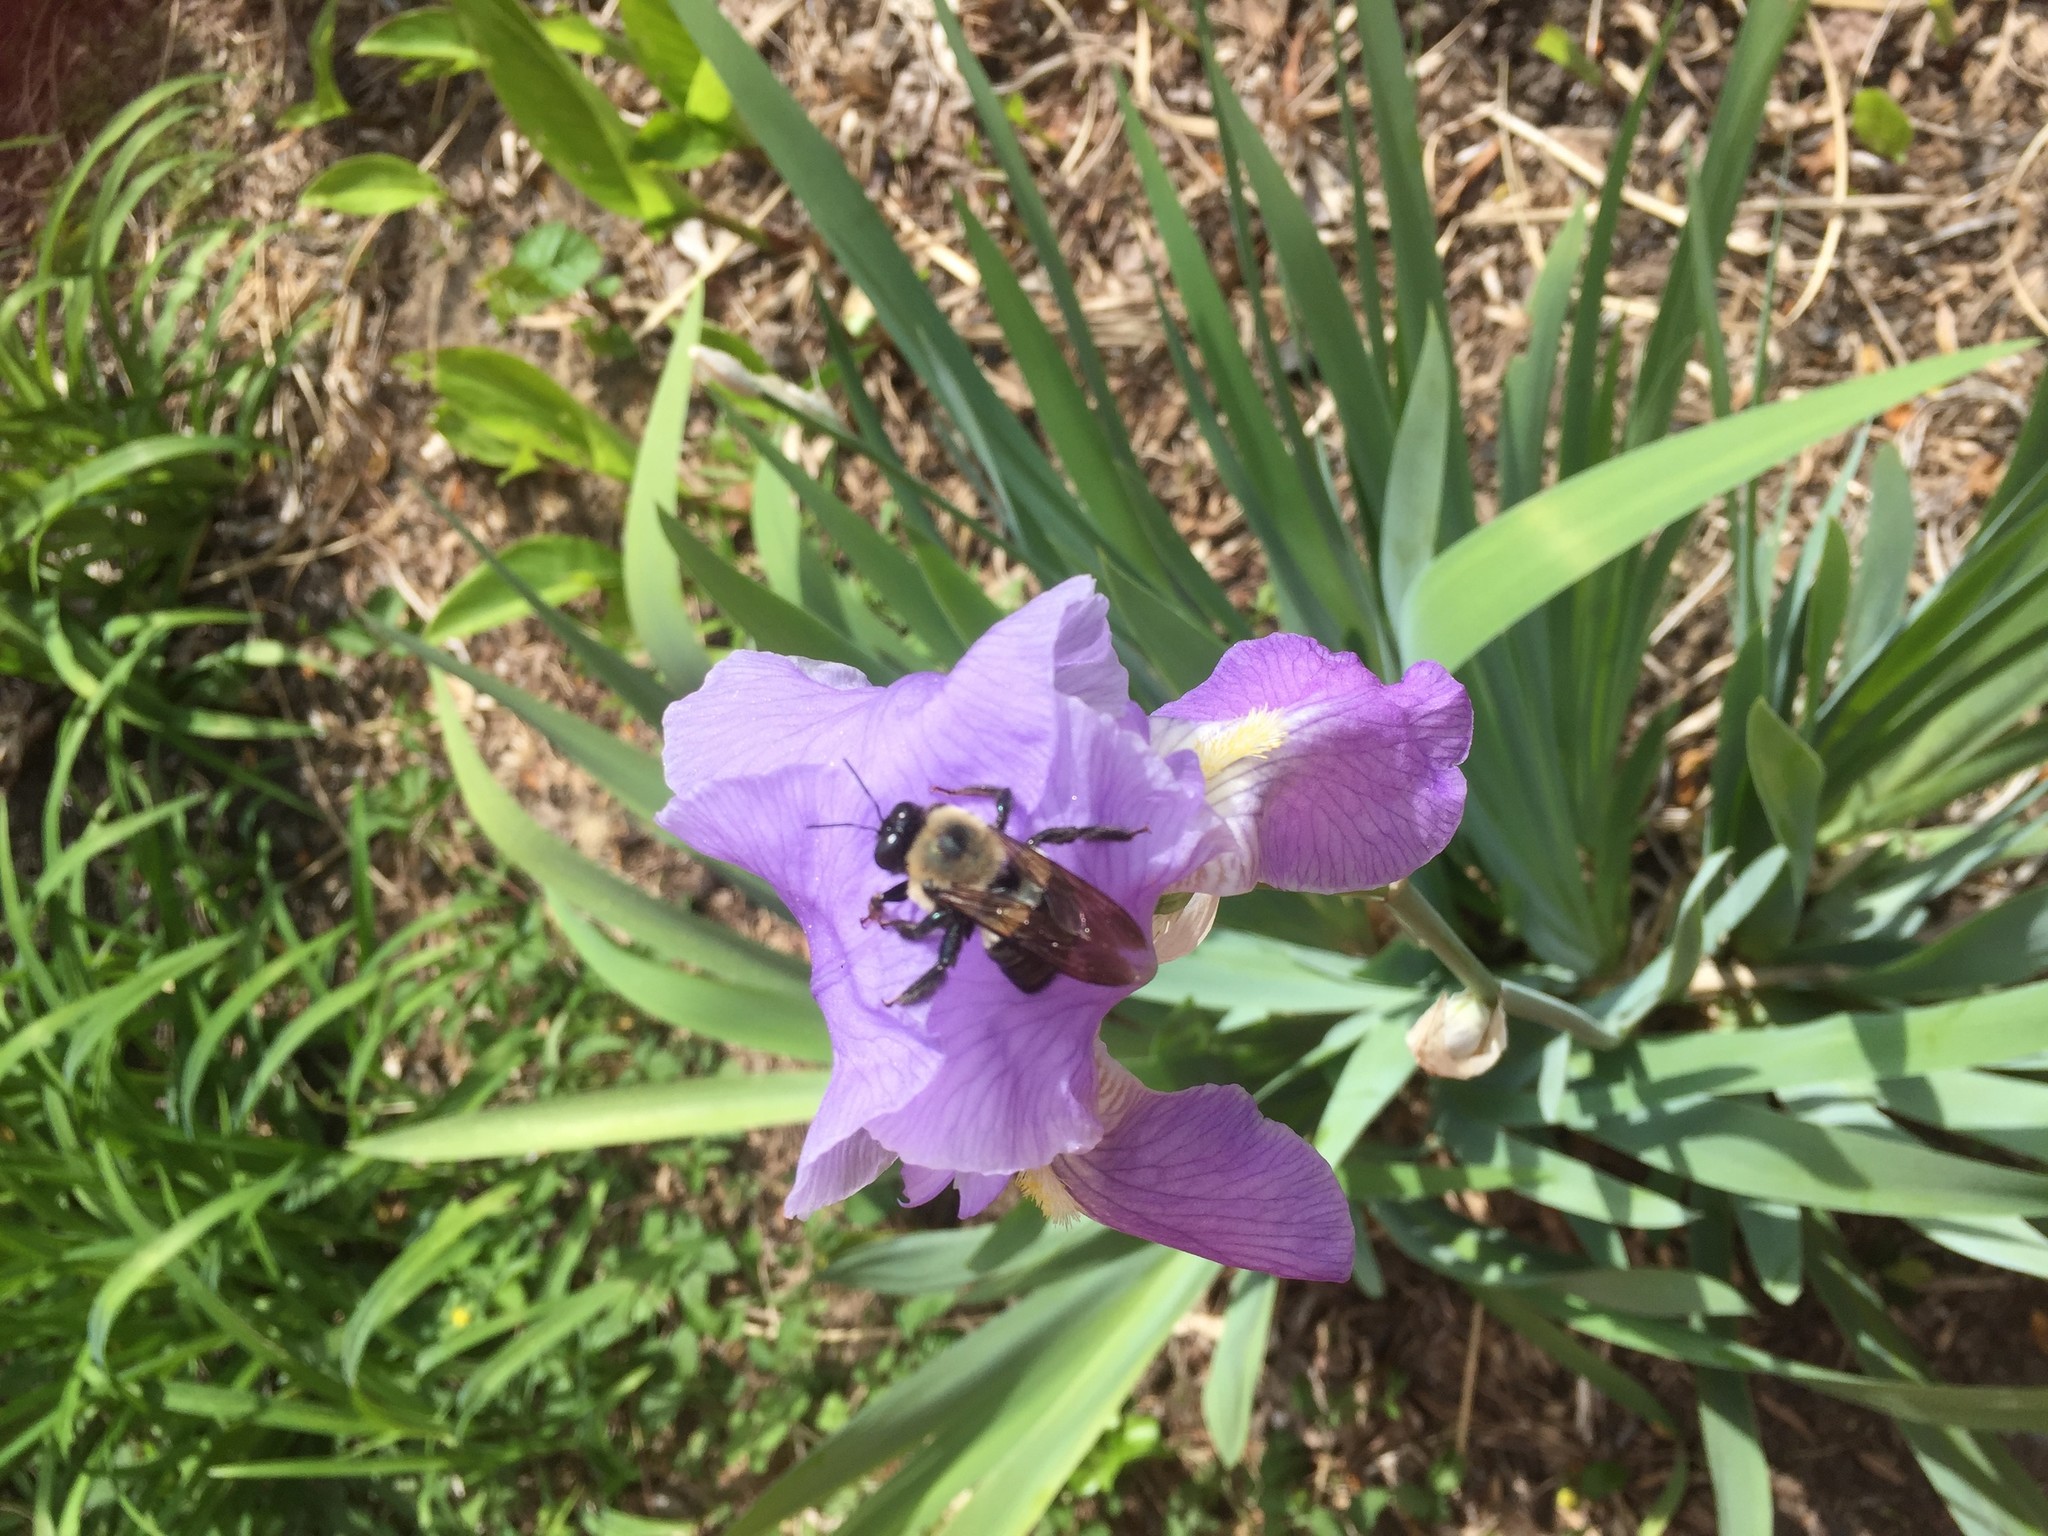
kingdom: Animalia
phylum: Arthropoda
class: Insecta
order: Hymenoptera
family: Apidae
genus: Xylocopa
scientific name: Xylocopa virginica
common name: Carpenter bee
